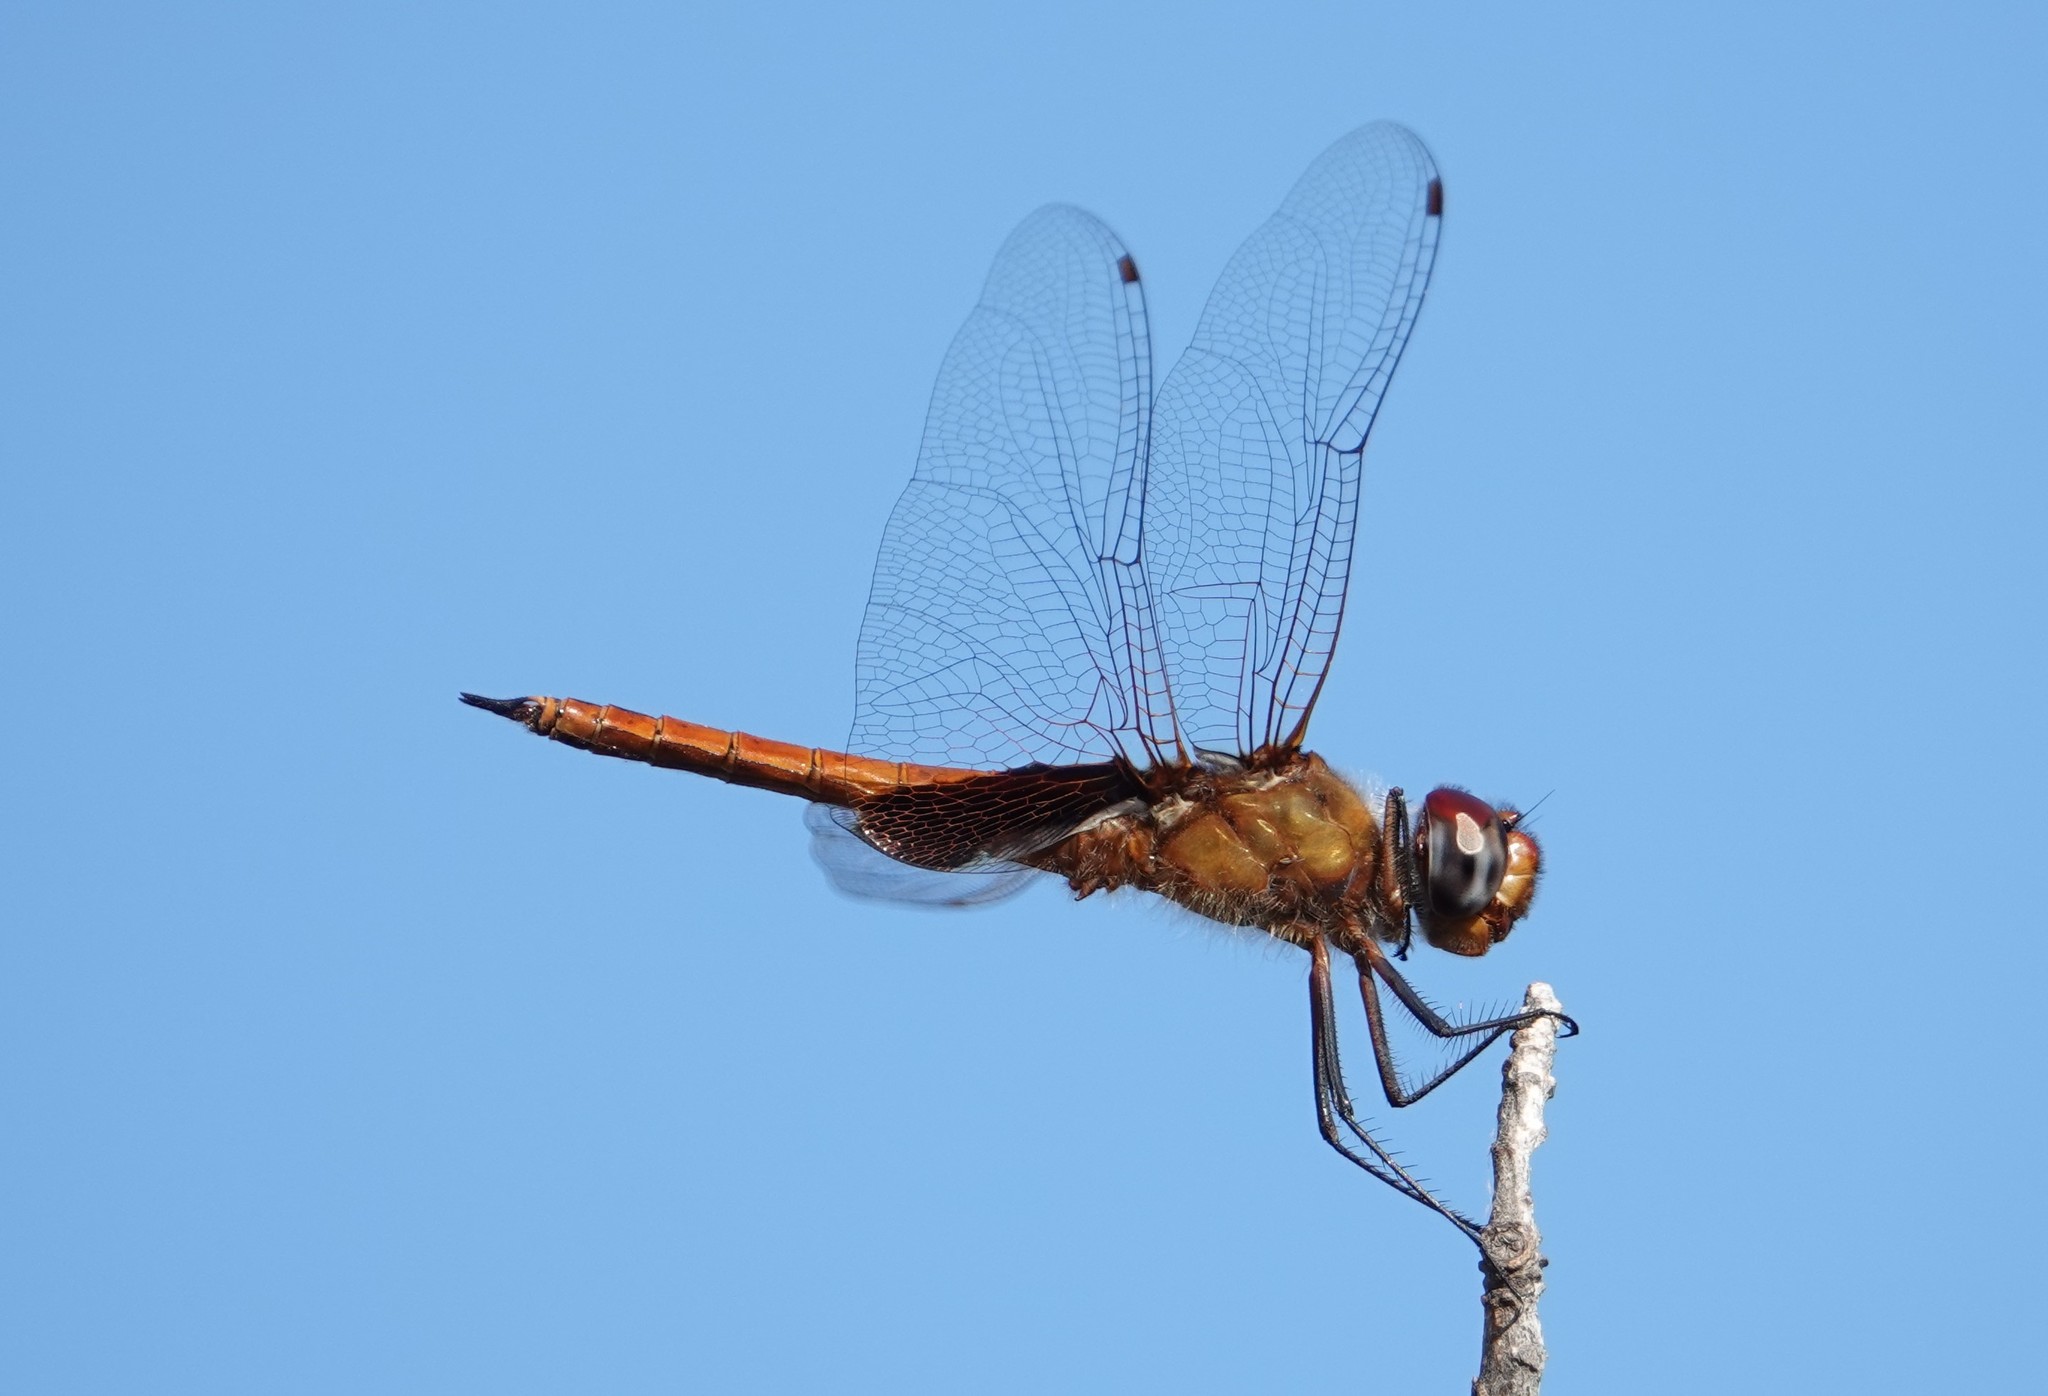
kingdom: Animalia
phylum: Arthropoda
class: Insecta
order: Odonata
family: Libellulidae
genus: Tramea
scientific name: Tramea abdominalis
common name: Vermilion saddlebags
